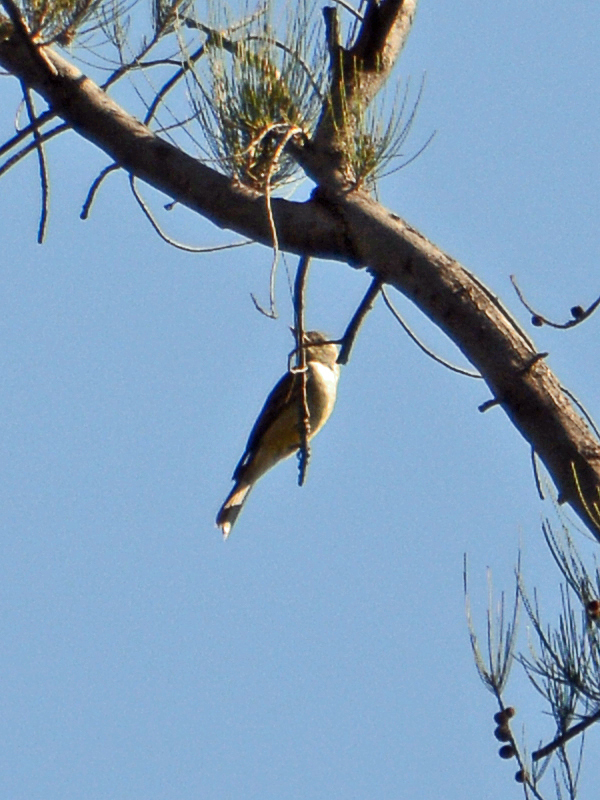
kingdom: Animalia
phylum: Chordata
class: Aves
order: Passeriformes
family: Tyrannidae
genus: Contopus
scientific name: Contopus pertinax
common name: Greater pewee
